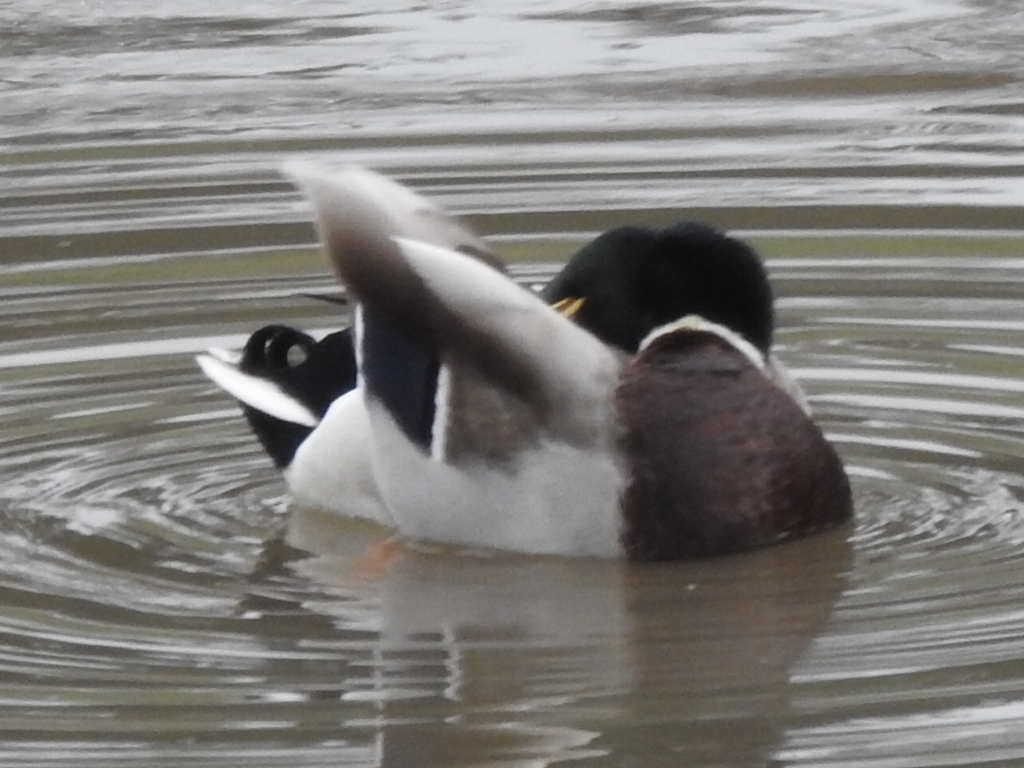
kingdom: Animalia
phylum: Chordata
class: Aves
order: Anseriformes
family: Anatidae
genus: Anas
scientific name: Anas platyrhynchos
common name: Mallard
